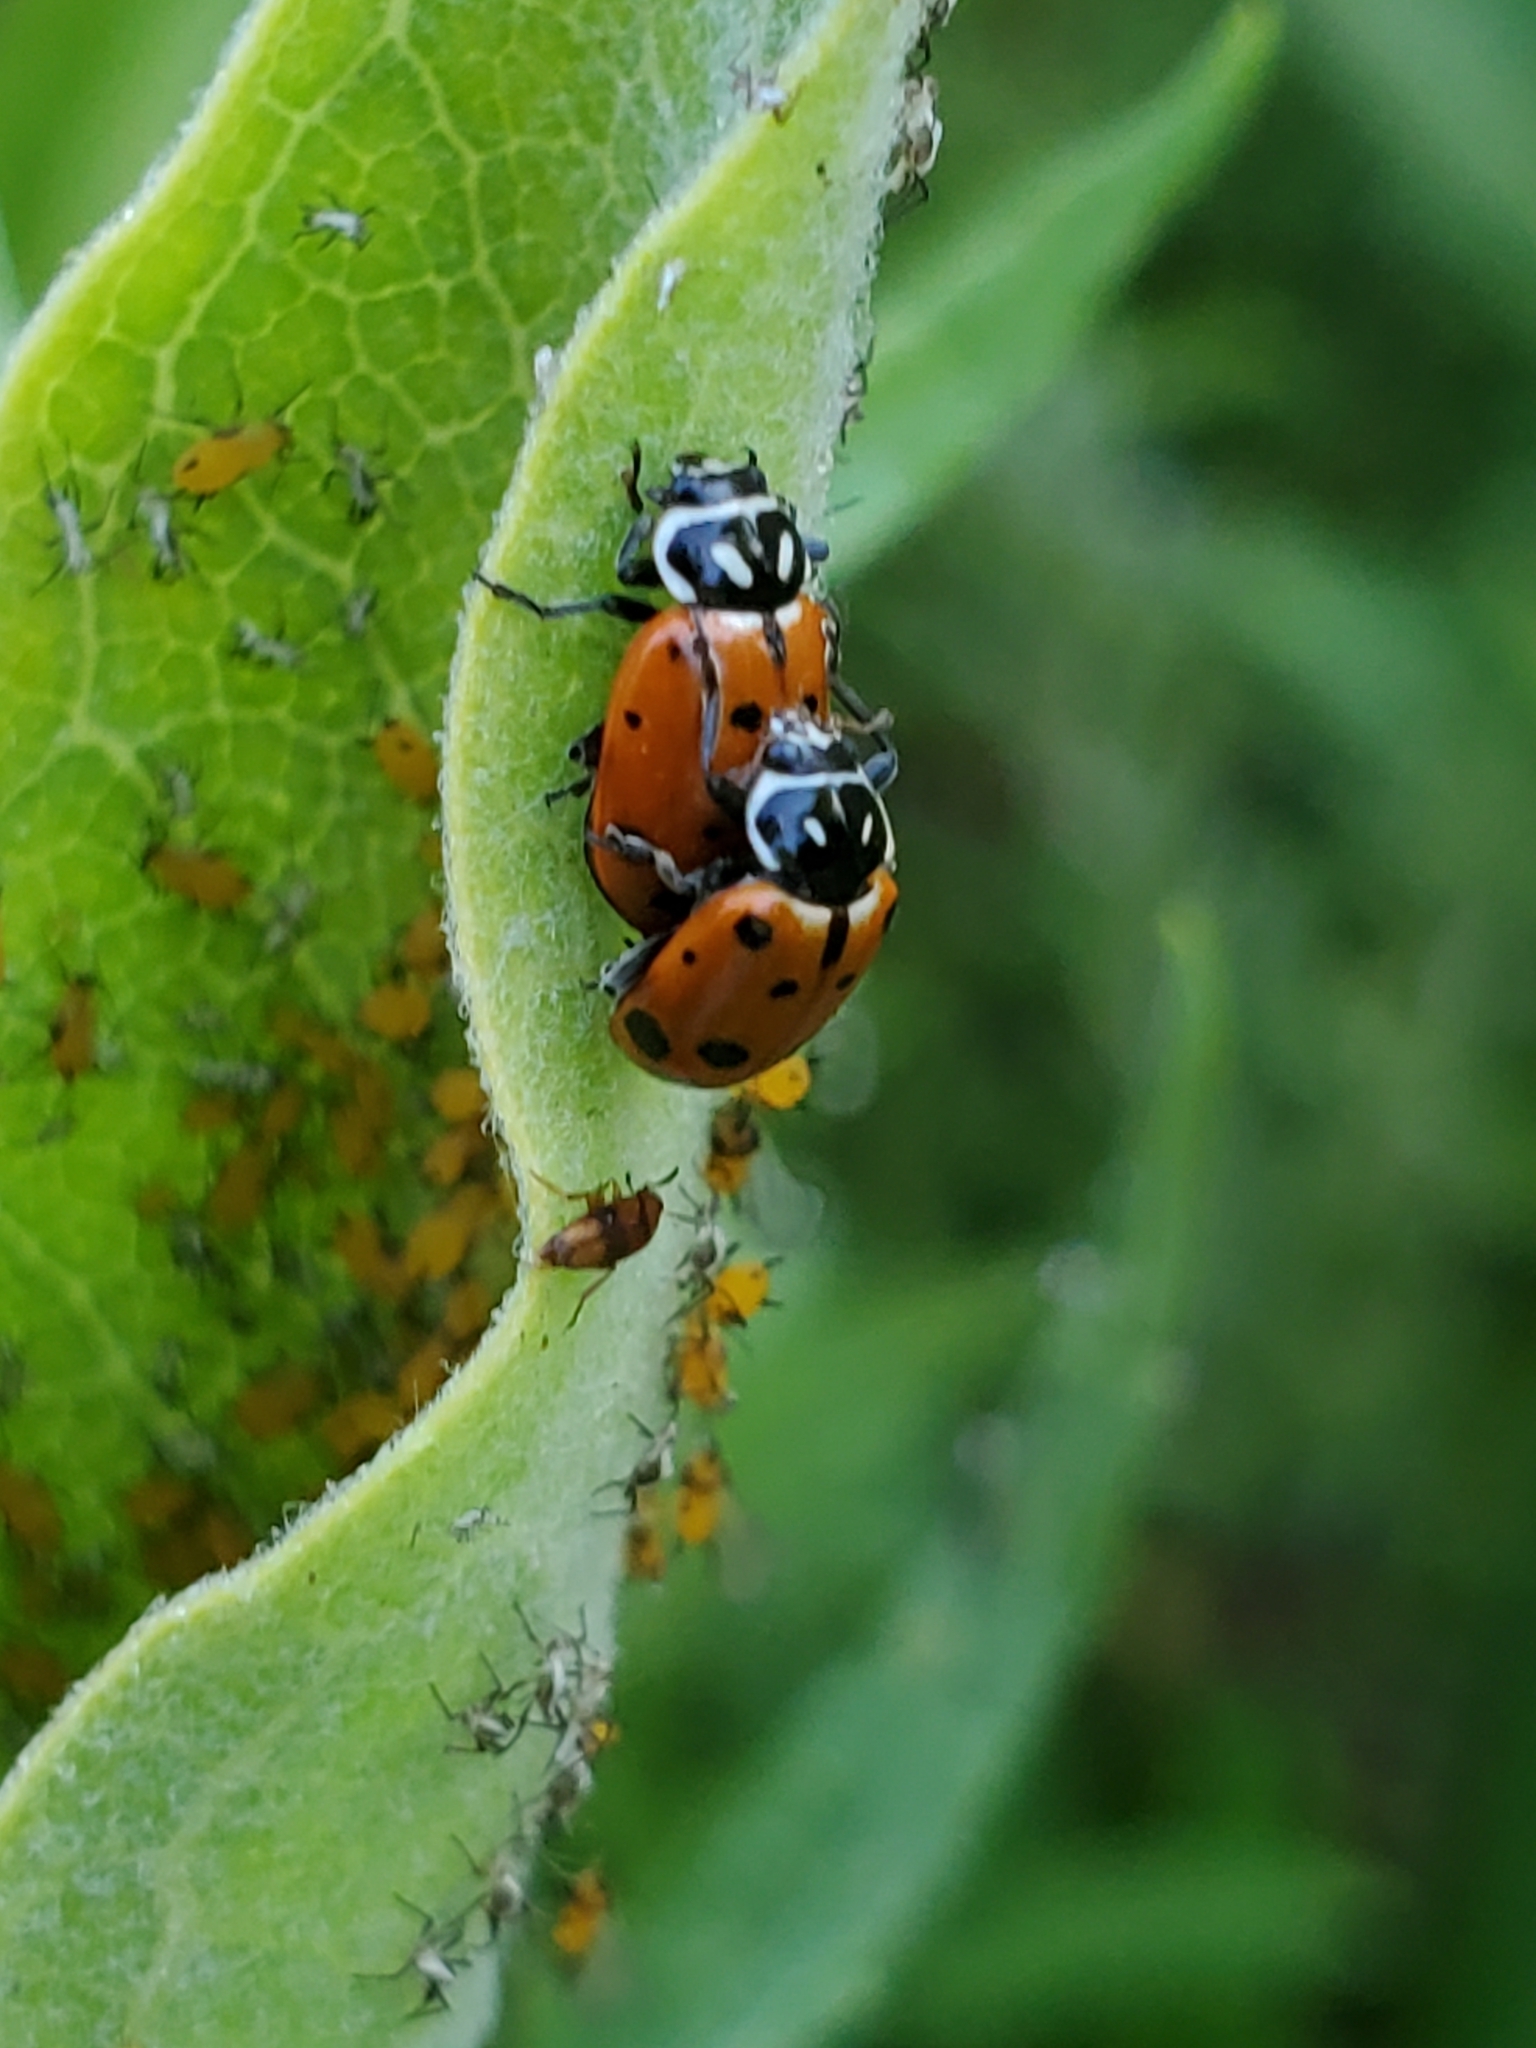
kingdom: Animalia
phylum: Arthropoda
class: Insecta
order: Coleoptera
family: Coccinellidae
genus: Hippodamia
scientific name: Hippodamia convergens
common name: Convergent lady beetle
